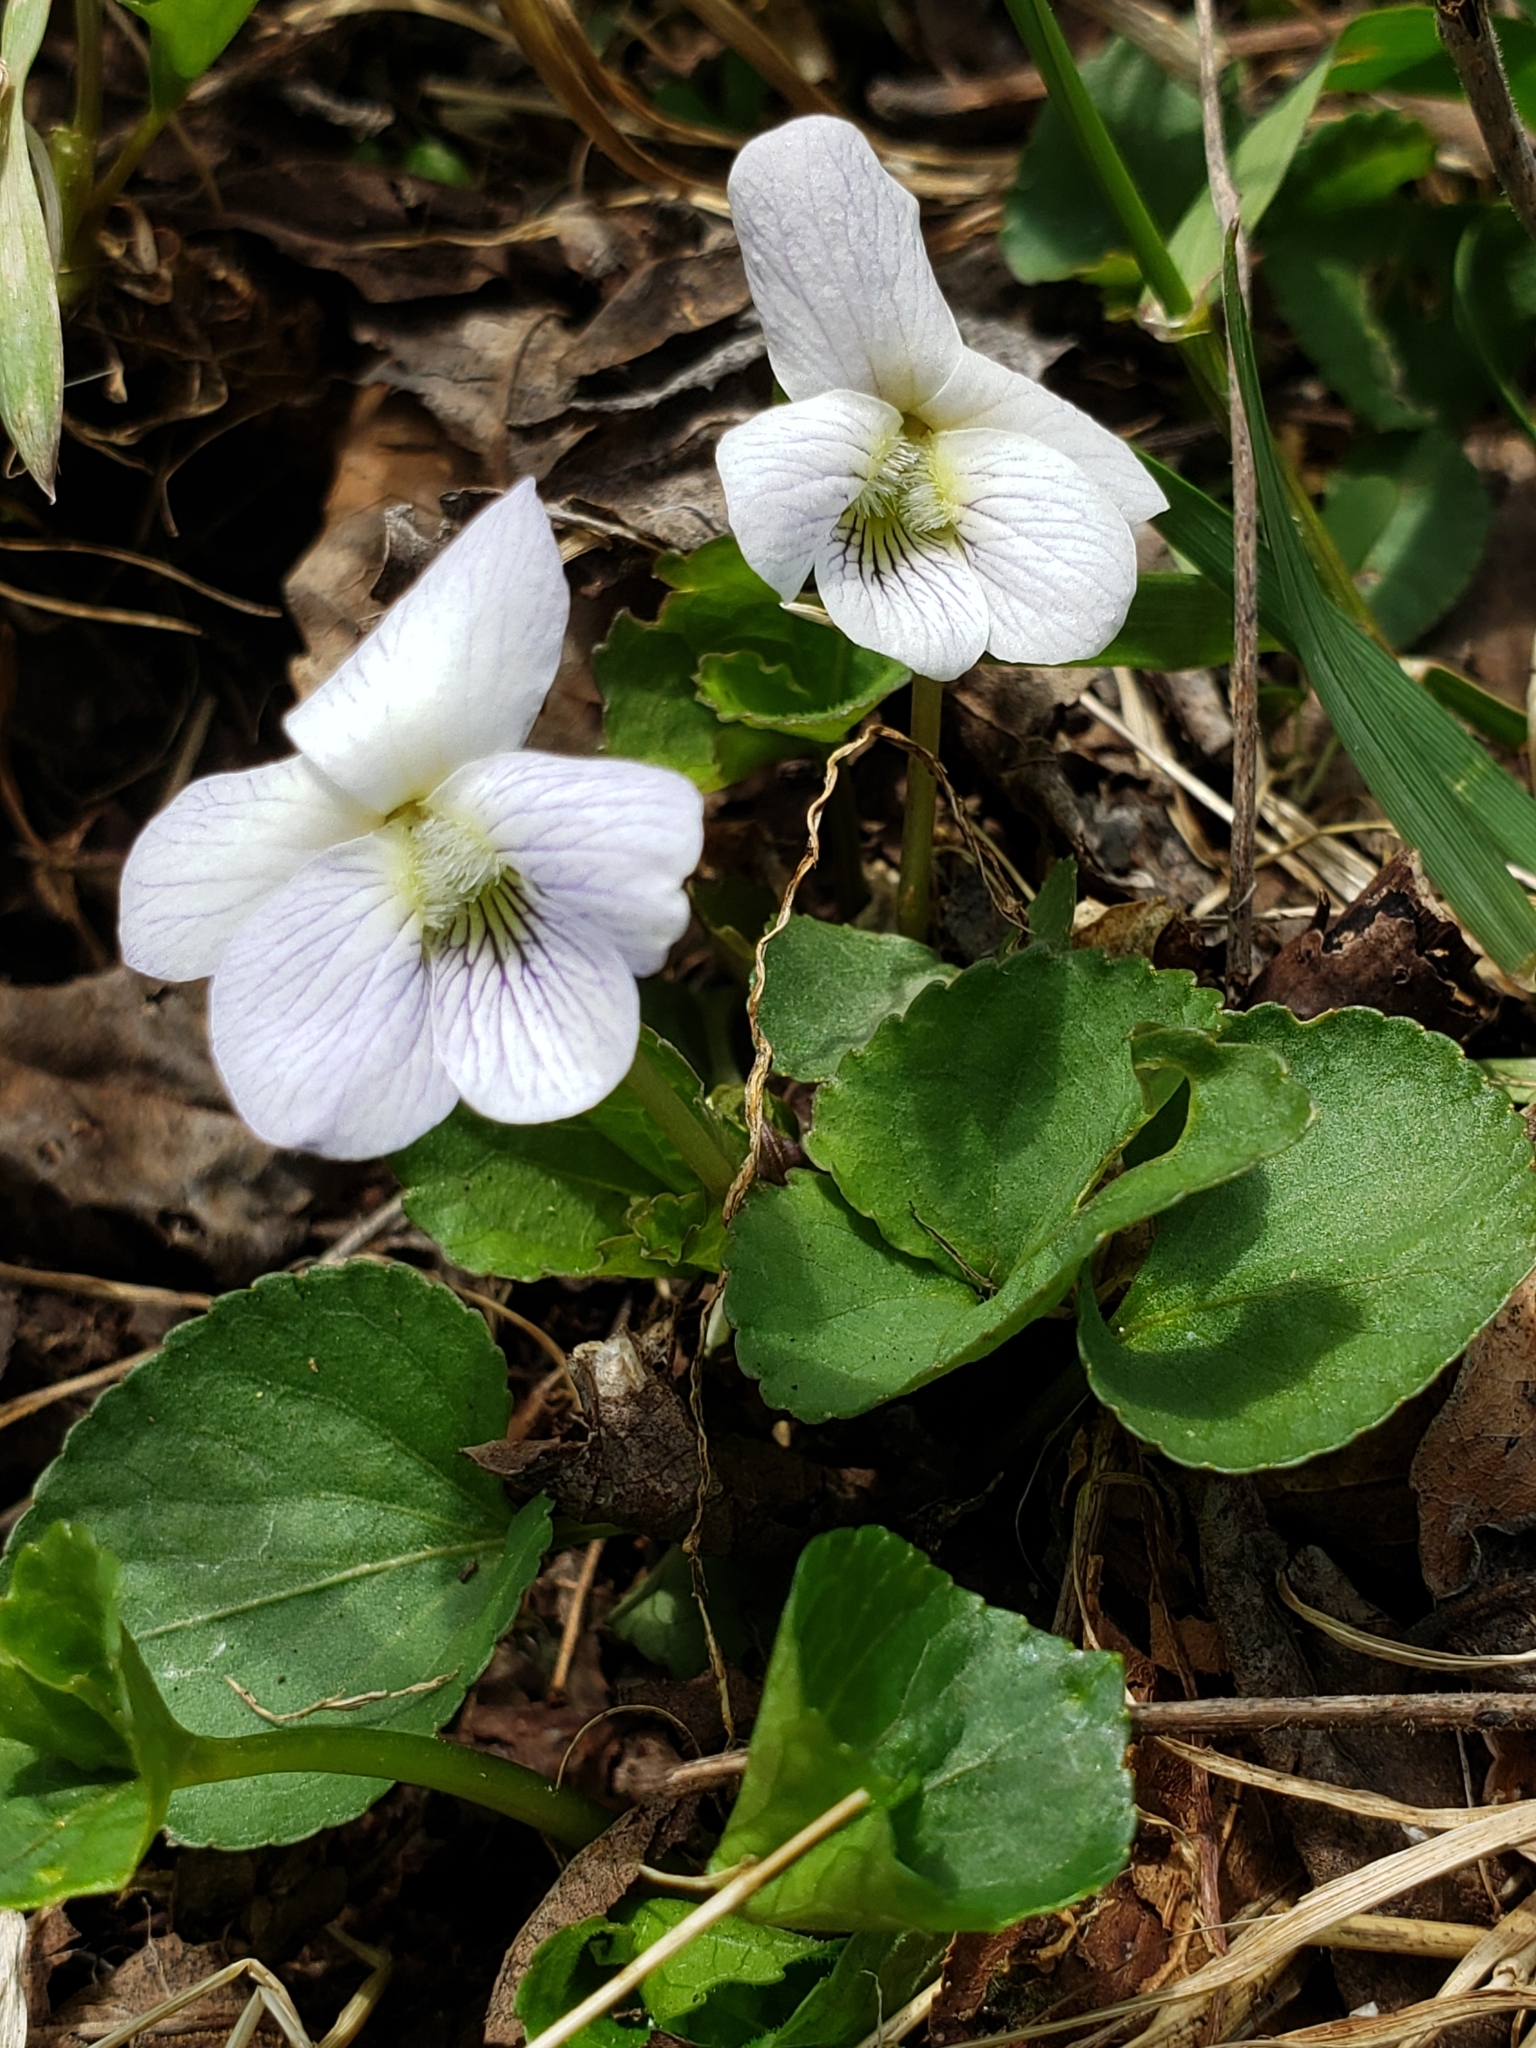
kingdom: Plantae
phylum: Tracheophyta
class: Magnoliopsida
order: Malpighiales
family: Violaceae
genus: Viola
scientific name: Viola blanda
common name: Sweet white violet
